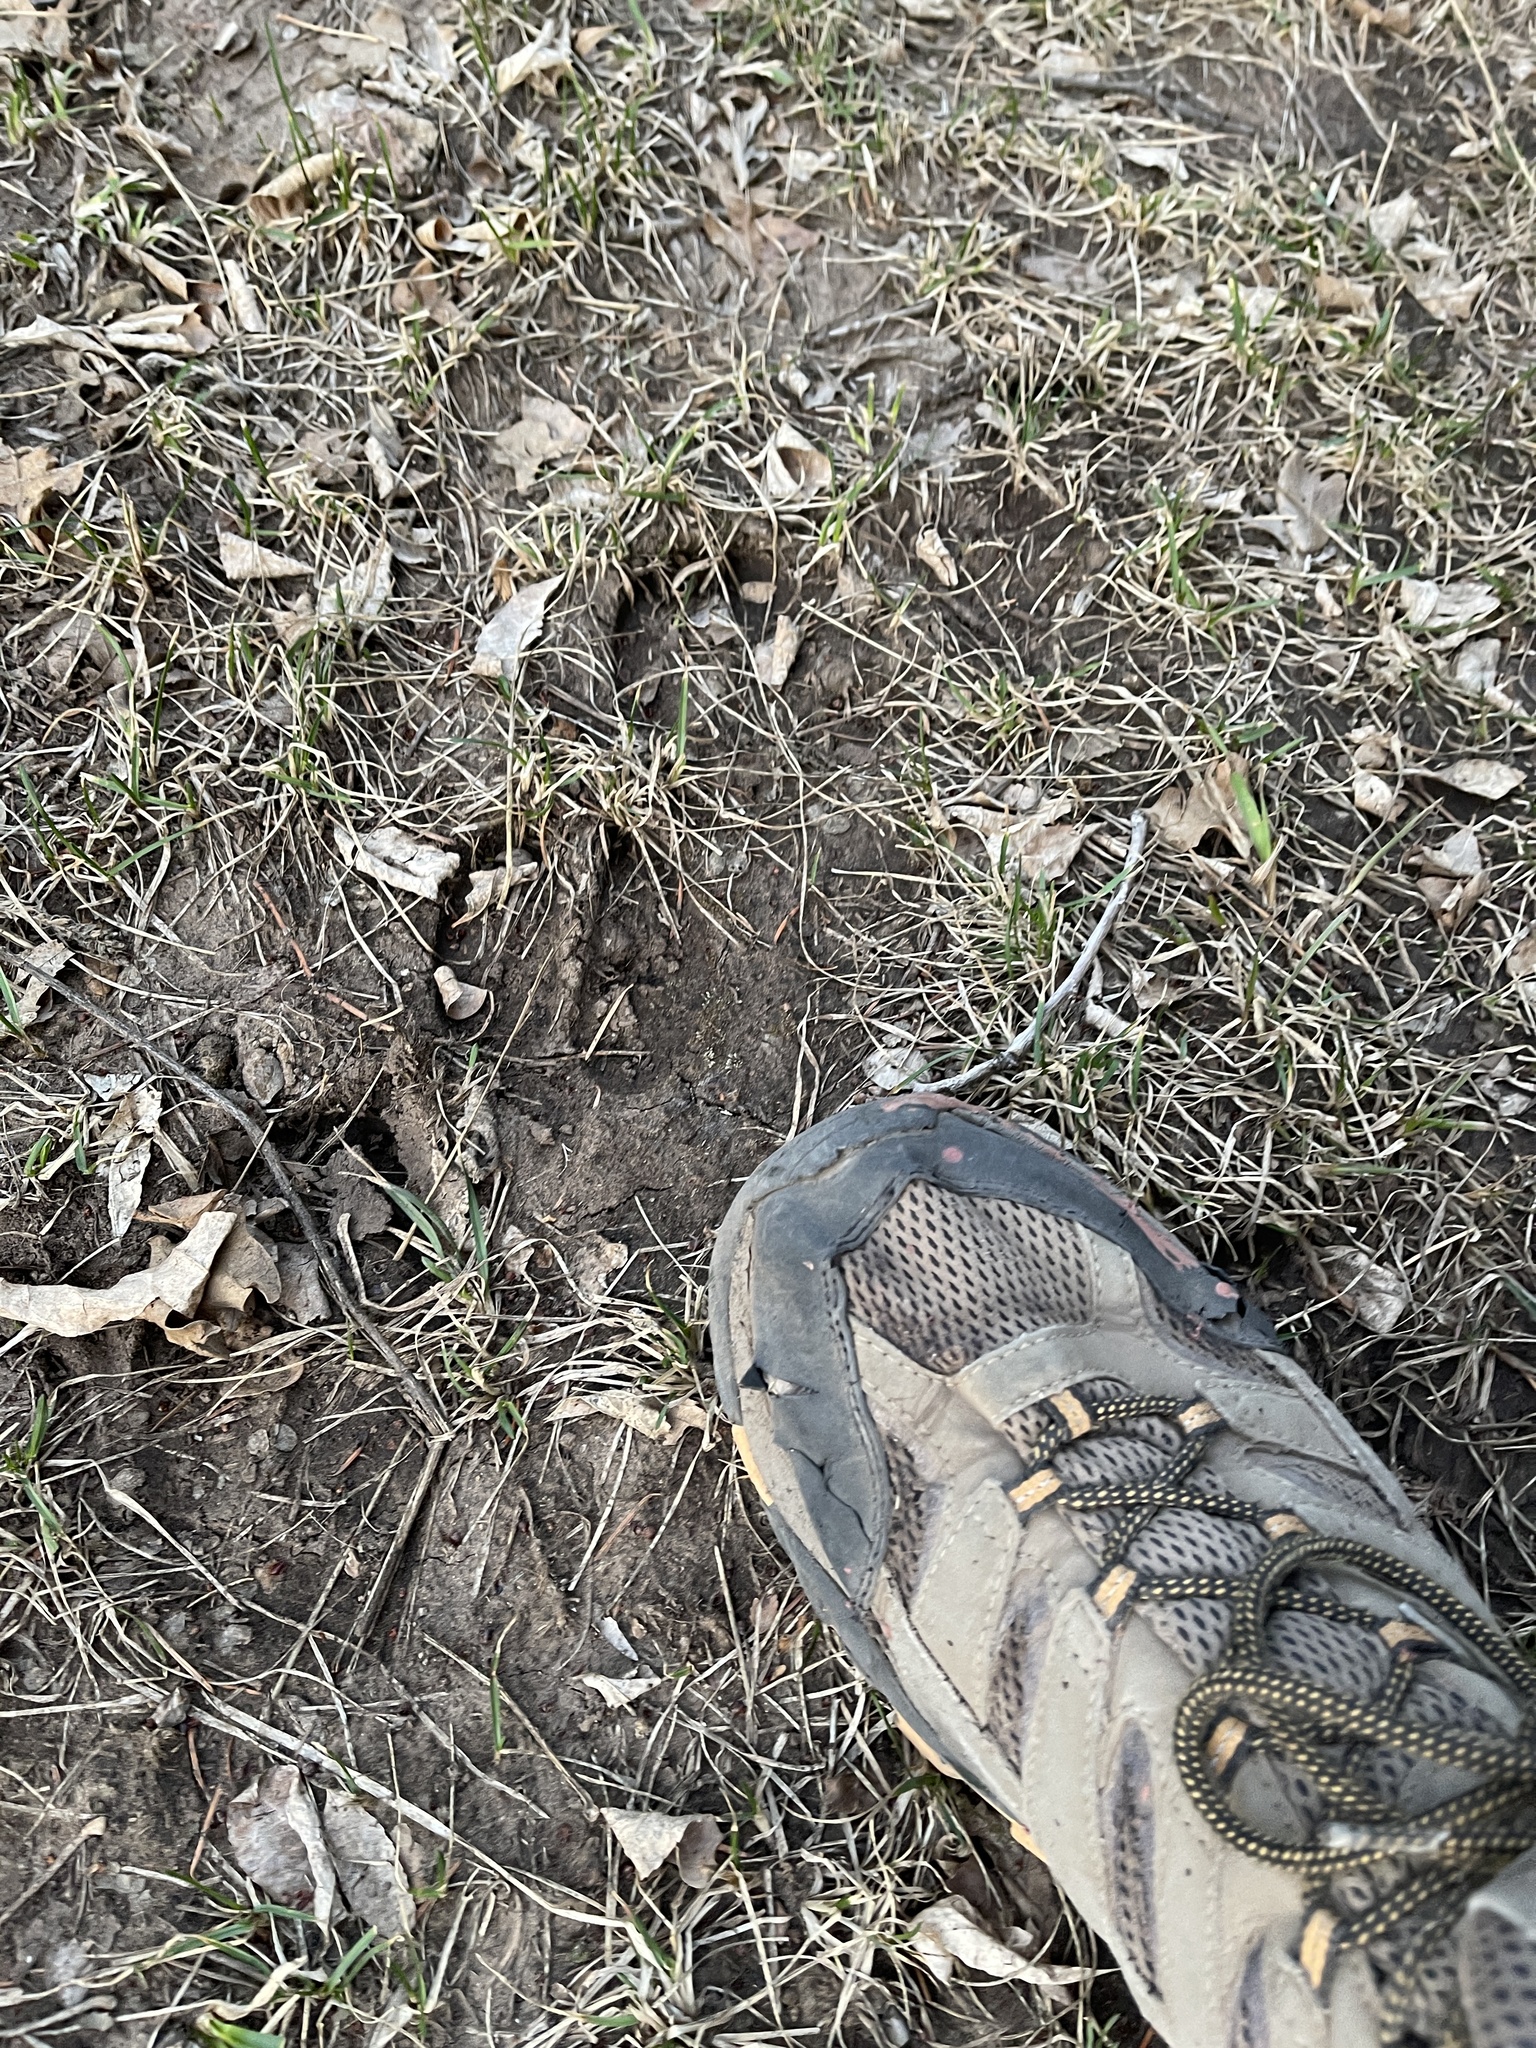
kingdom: Animalia
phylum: Chordata
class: Mammalia
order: Artiodactyla
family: Cervidae
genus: Cervus
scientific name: Cervus elaphus
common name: Red deer
